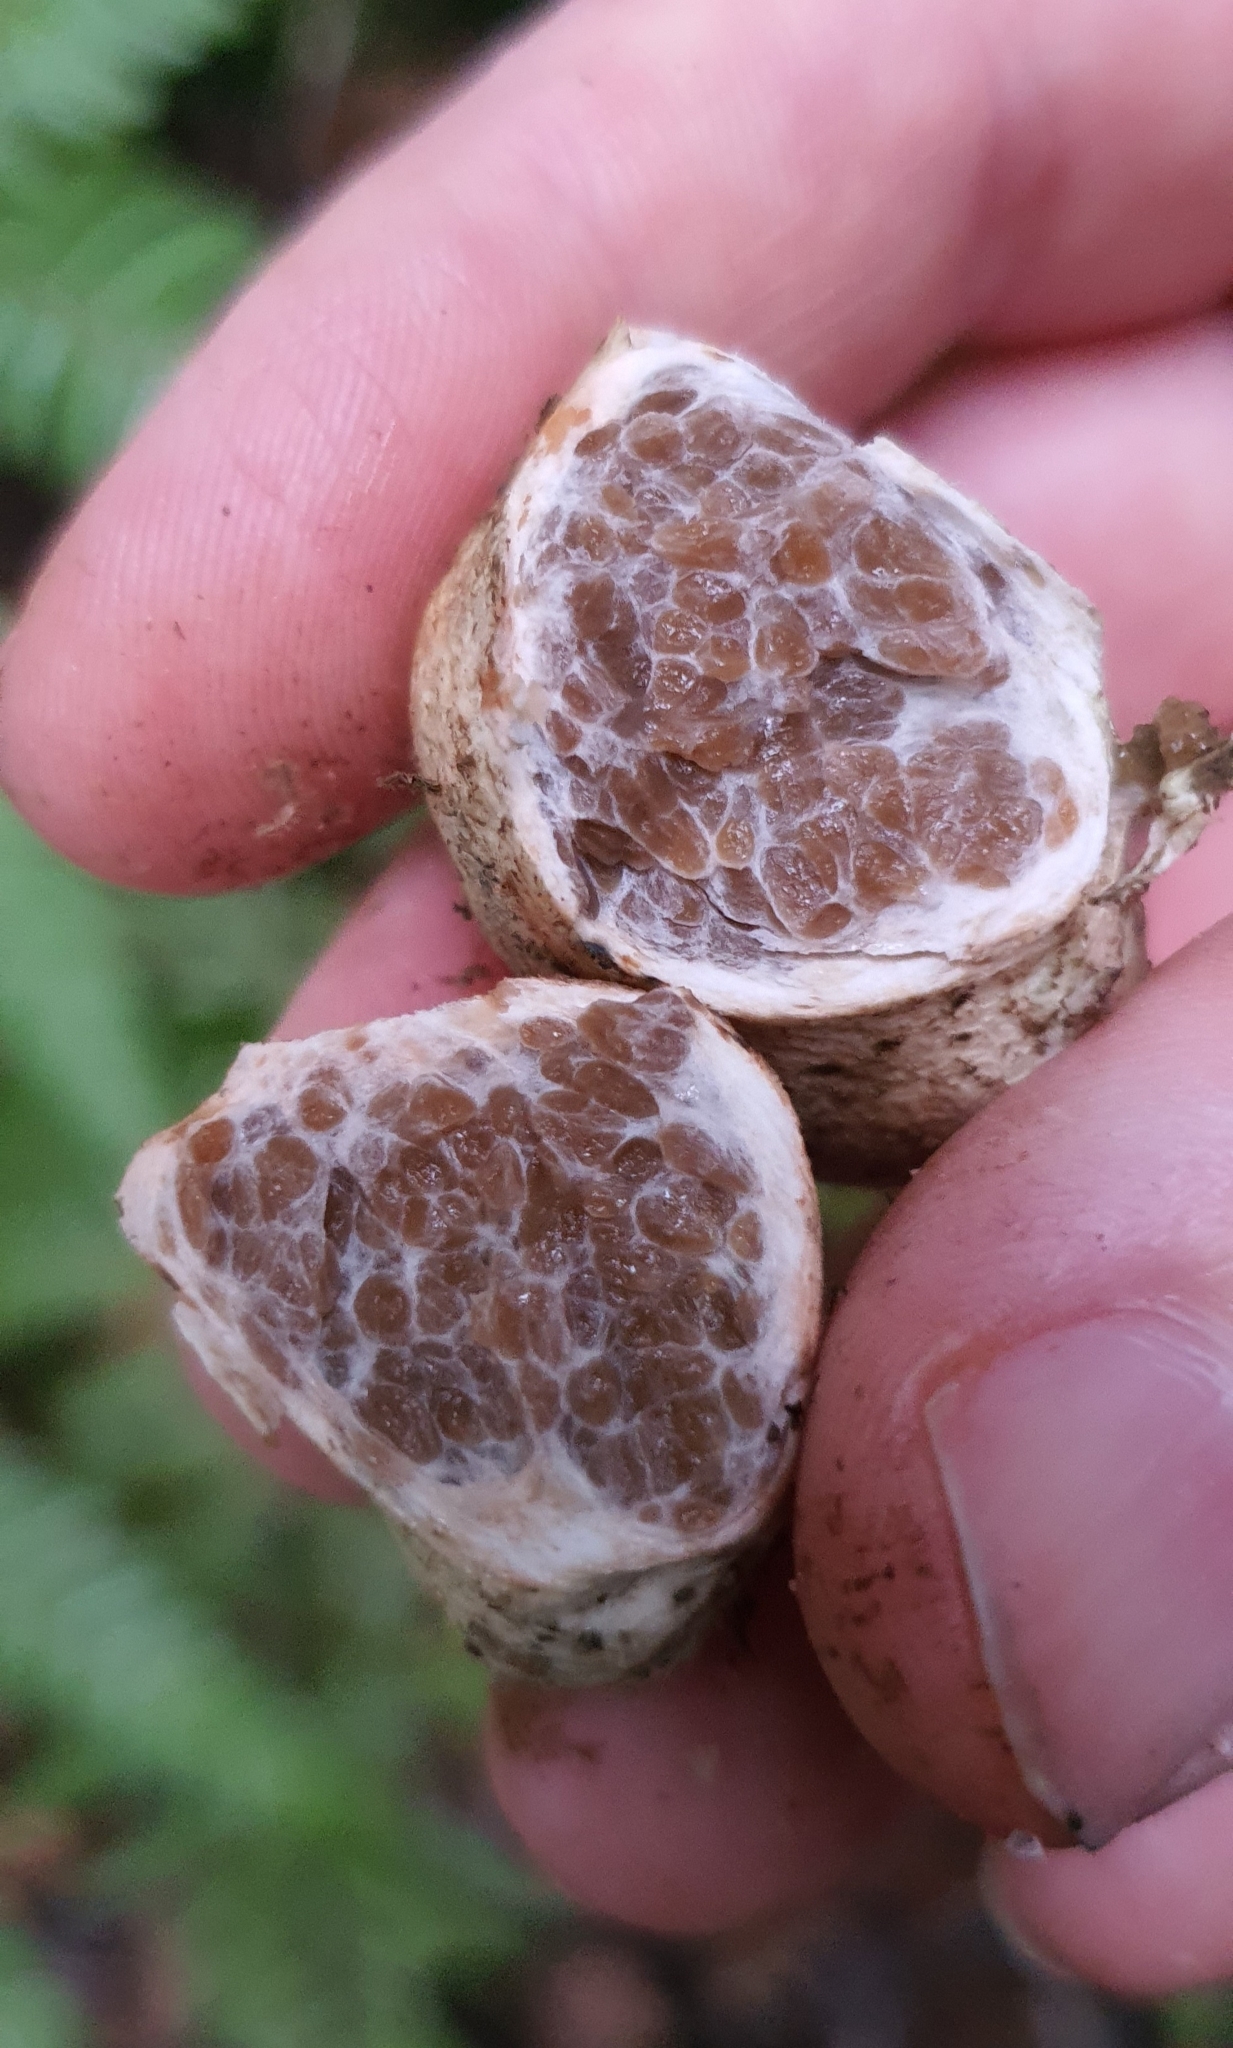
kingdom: Fungi
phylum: Basidiomycota
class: Agaricomycetes
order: Boletales
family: Boletaceae
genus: Octaviania
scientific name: Octaviania tasmanica
